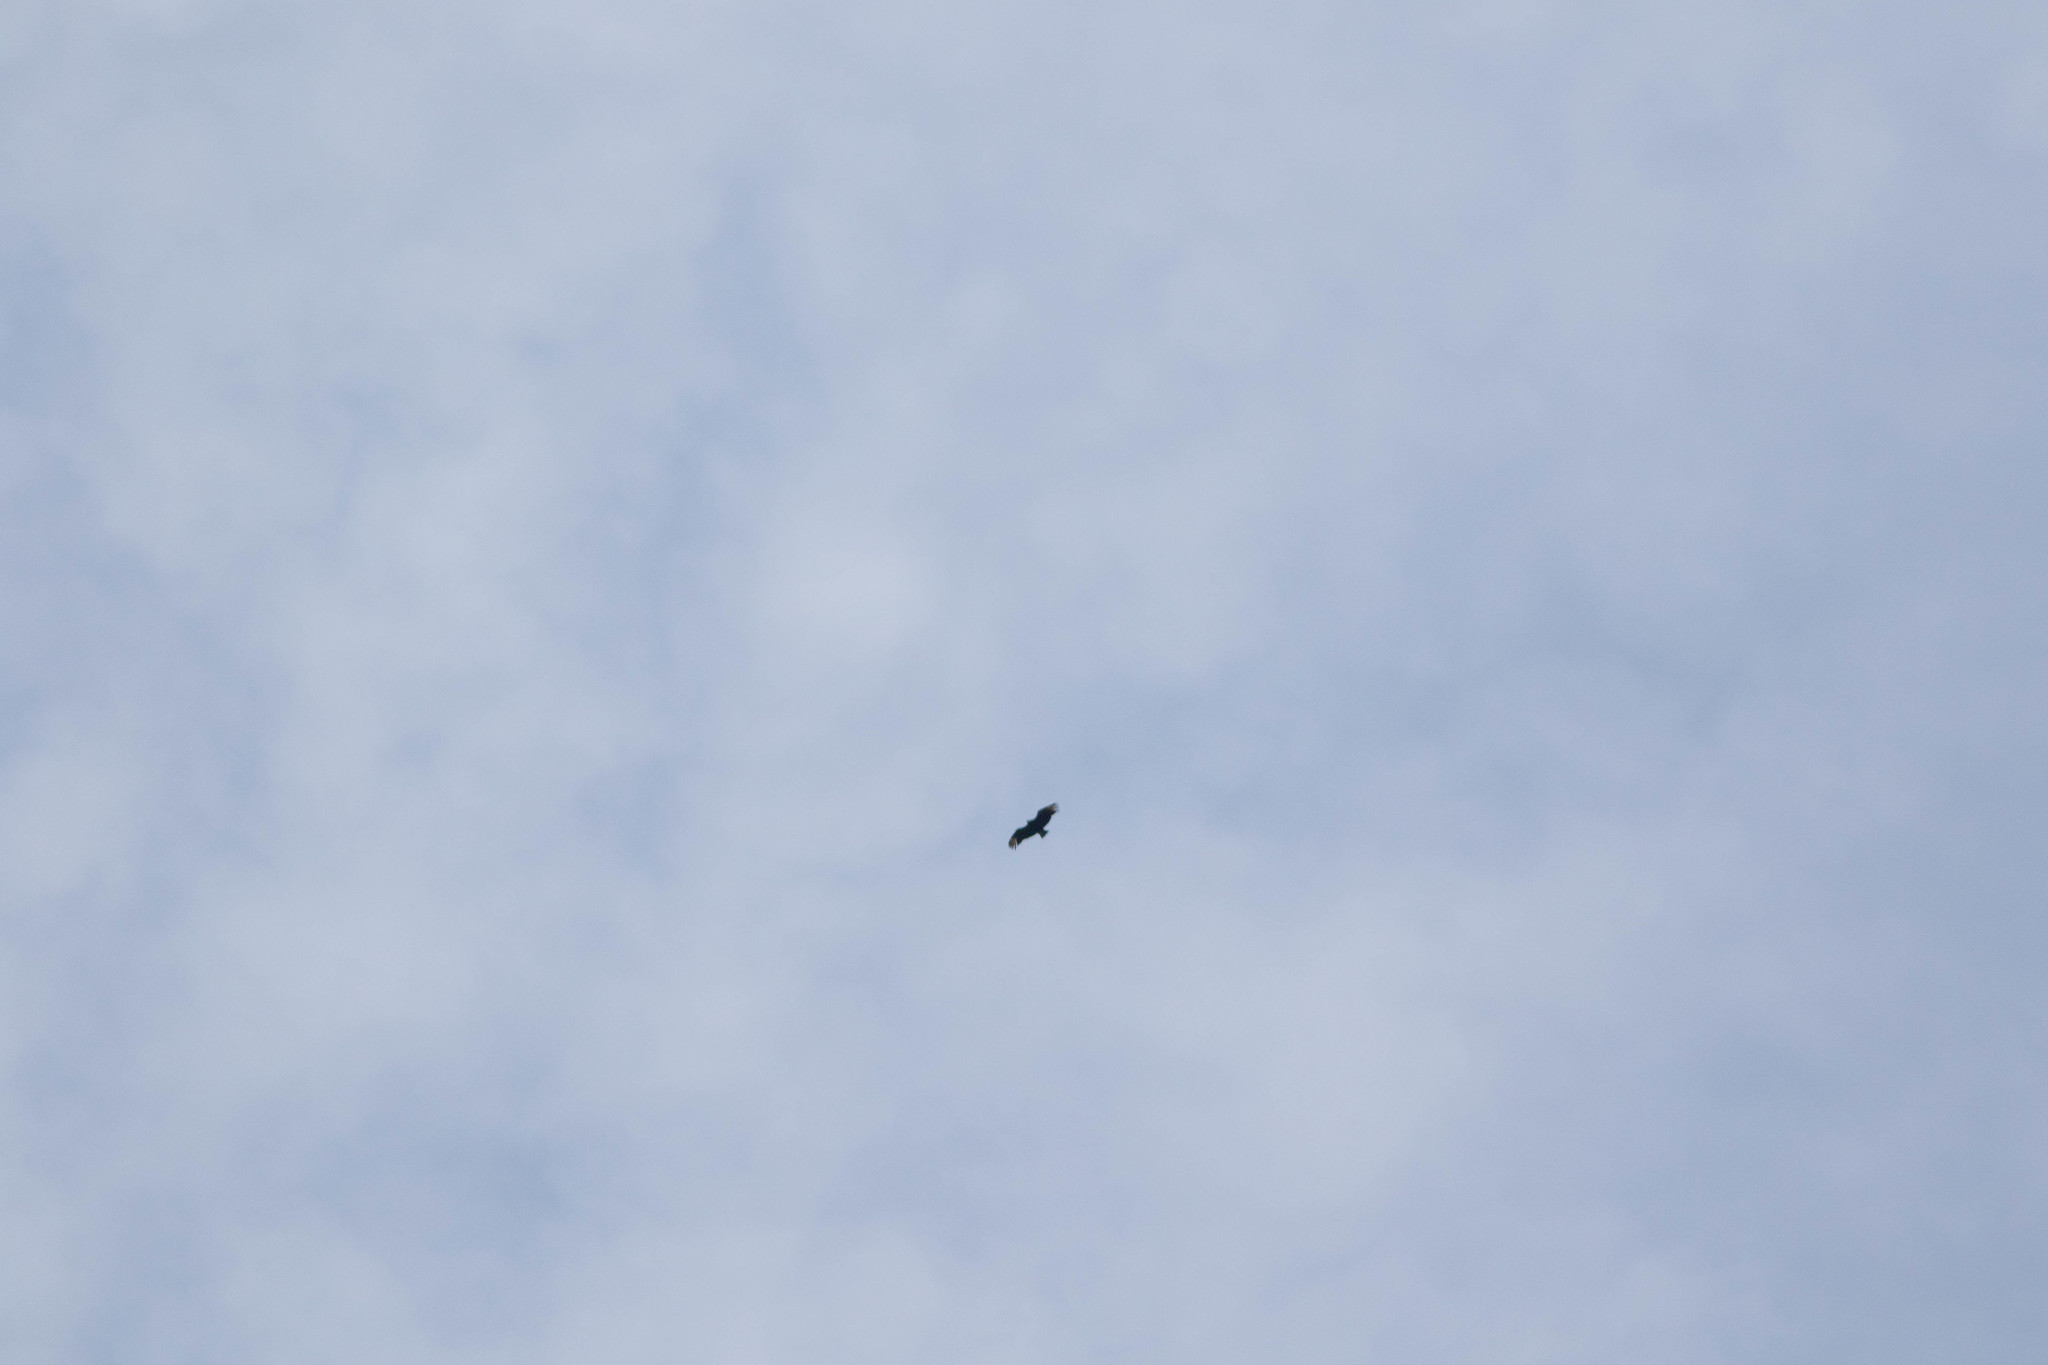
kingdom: Animalia
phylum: Chordata
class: Aves
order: Accipitriformes
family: Cathartidae
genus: Coragyps
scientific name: Coragyps atratus
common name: Black vulture
